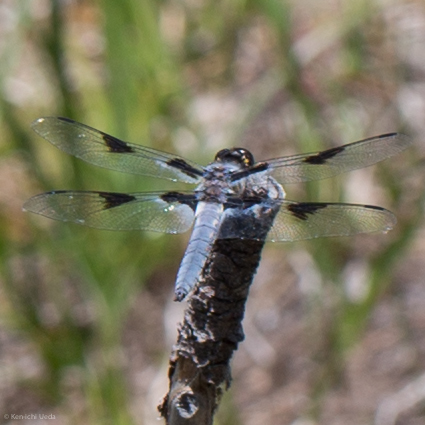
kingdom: Animalia
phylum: Arthropoda
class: Insecta
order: Odonata
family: Libellulidae
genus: Libellula
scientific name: Libellula nodisticta
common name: Hoary skimmer
